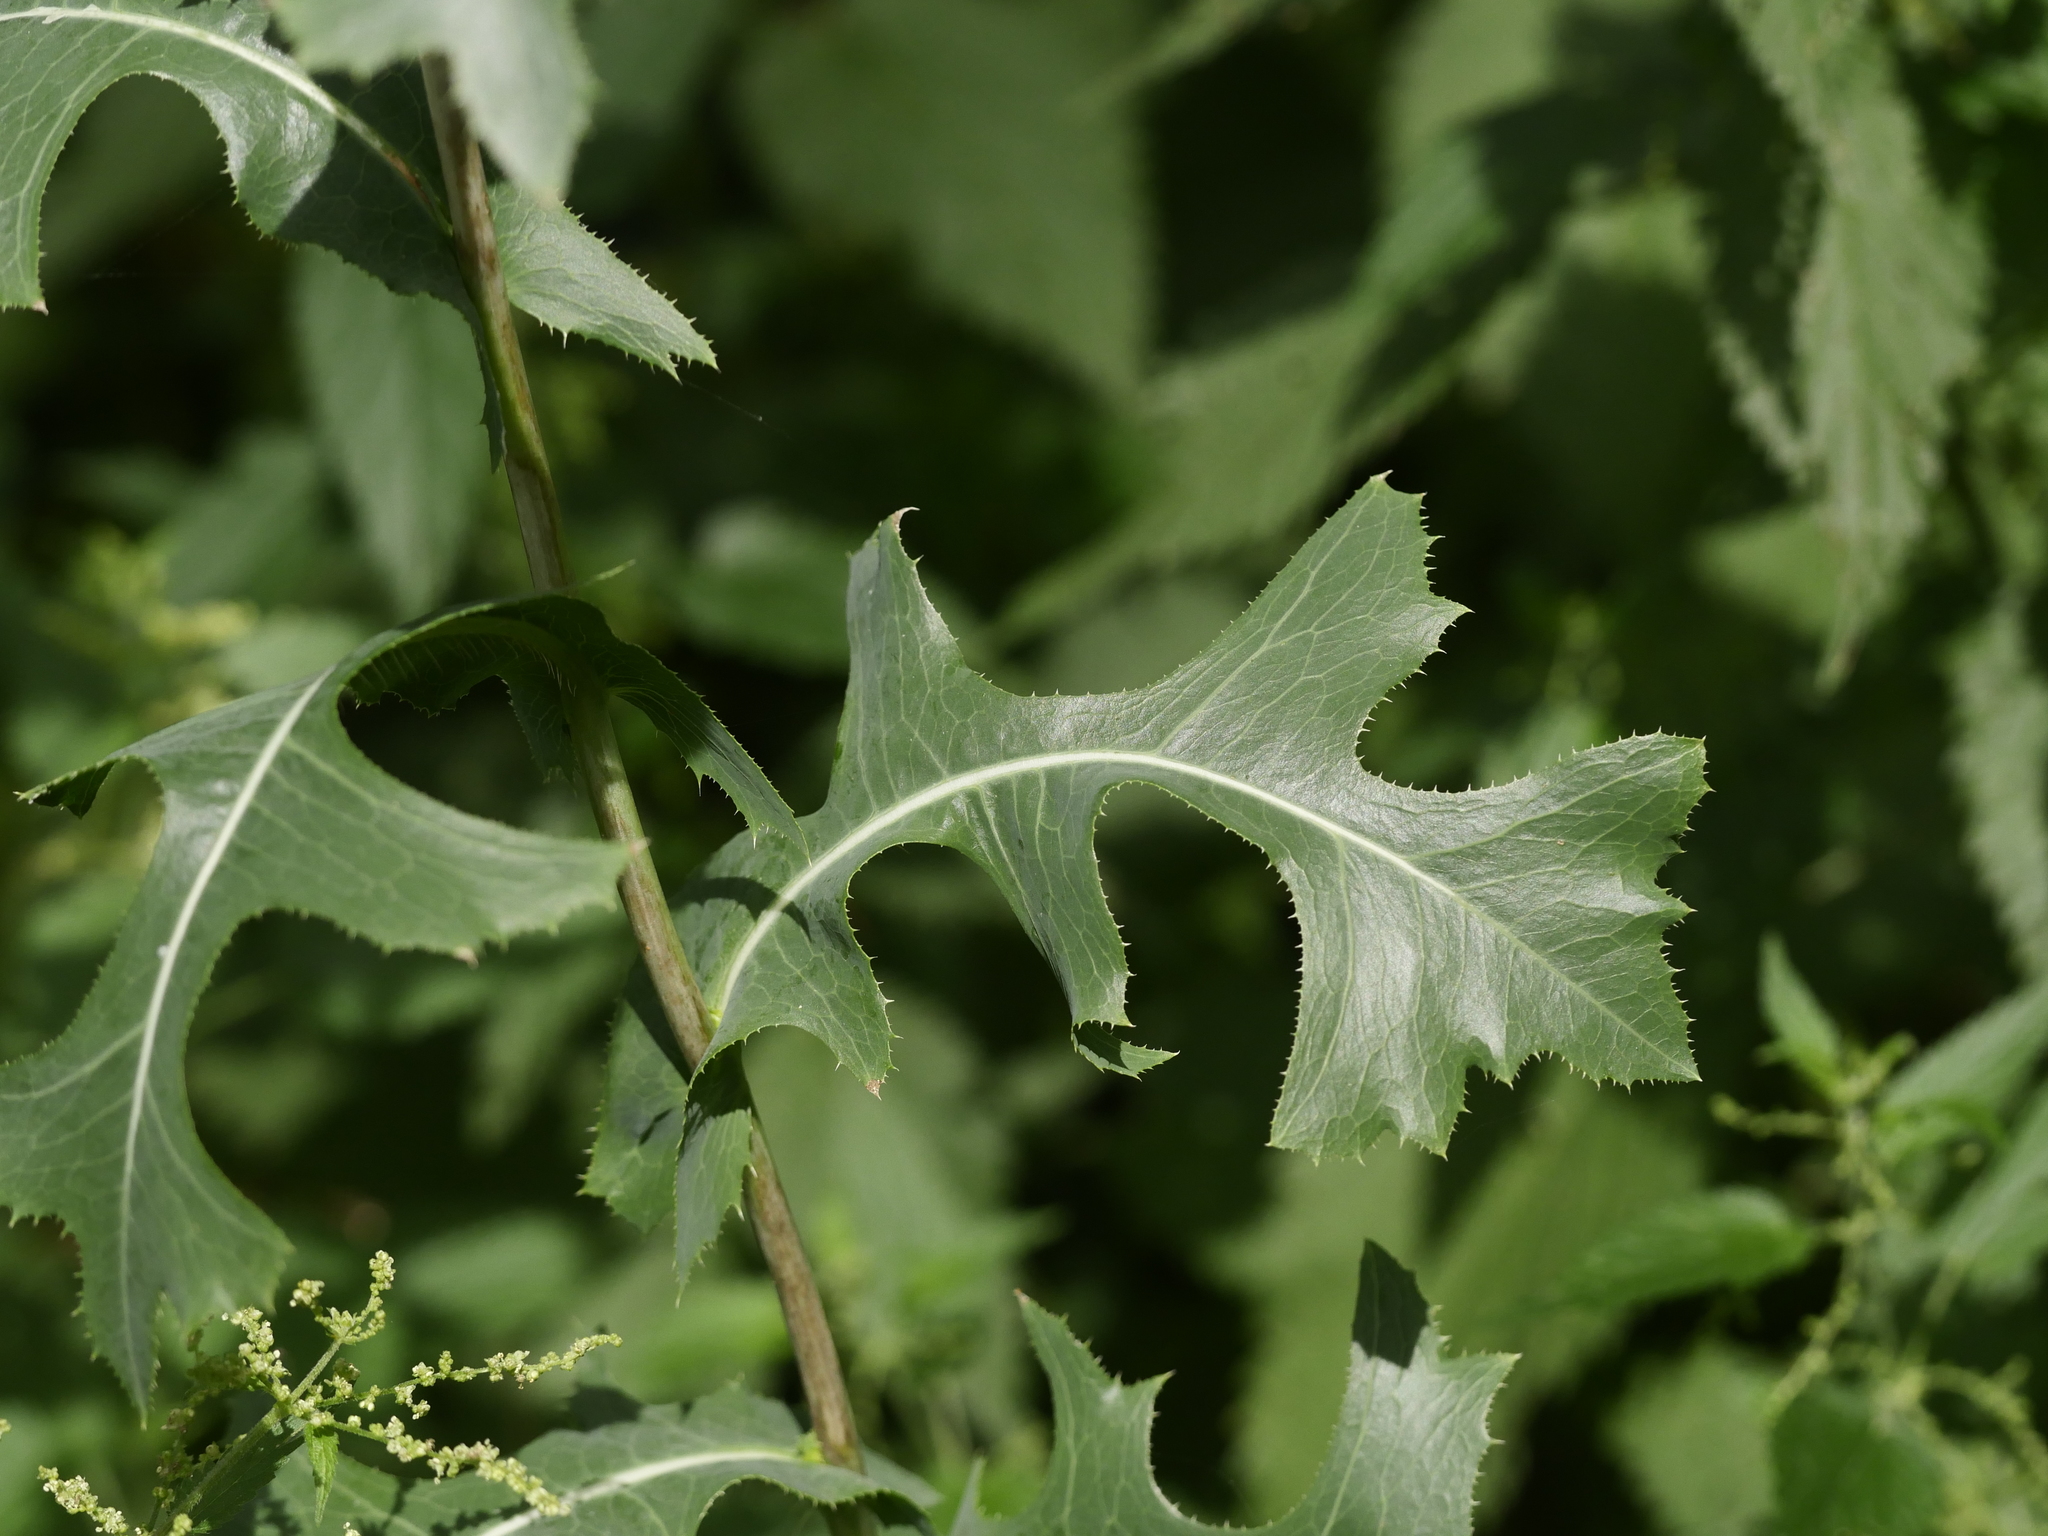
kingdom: Plantae
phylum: Tracheophyta
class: Magnoliopsida
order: Asterales
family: Asteraceae
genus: Lactuca
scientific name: Lactuca serriola
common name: Prickly lettuce
